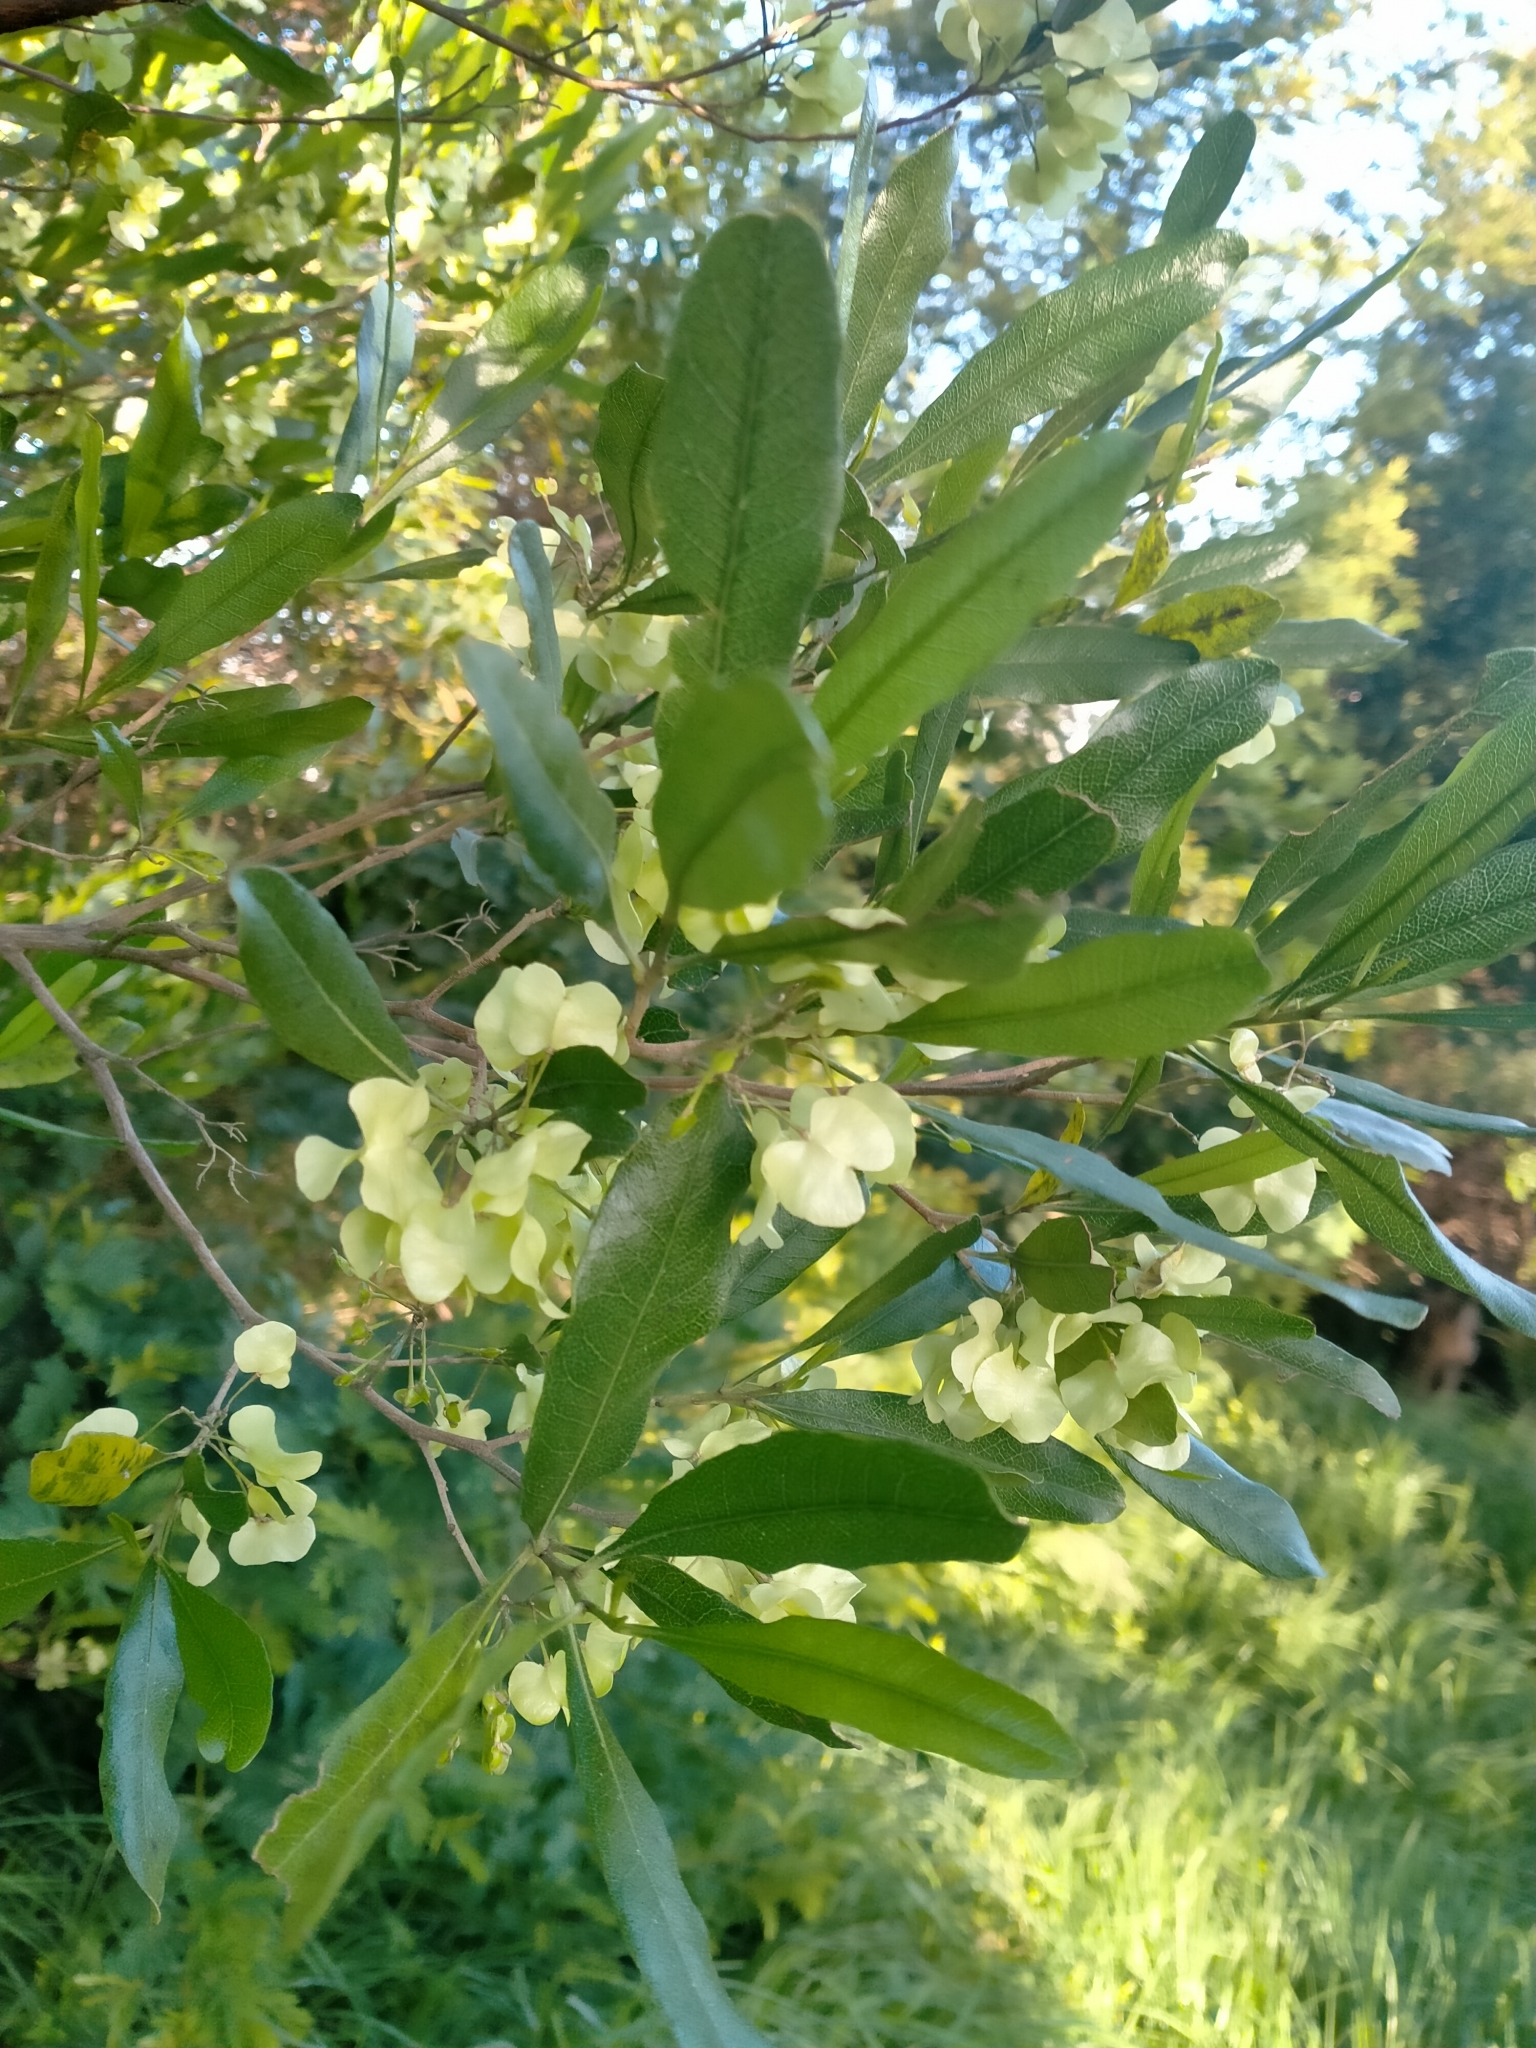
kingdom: Plantae
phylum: Tracheophyta
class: Magnoliopsida
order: Sapindales
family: Sapindaceae
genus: Dodonaea
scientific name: Dodonaea viscosa
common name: Hopbush
